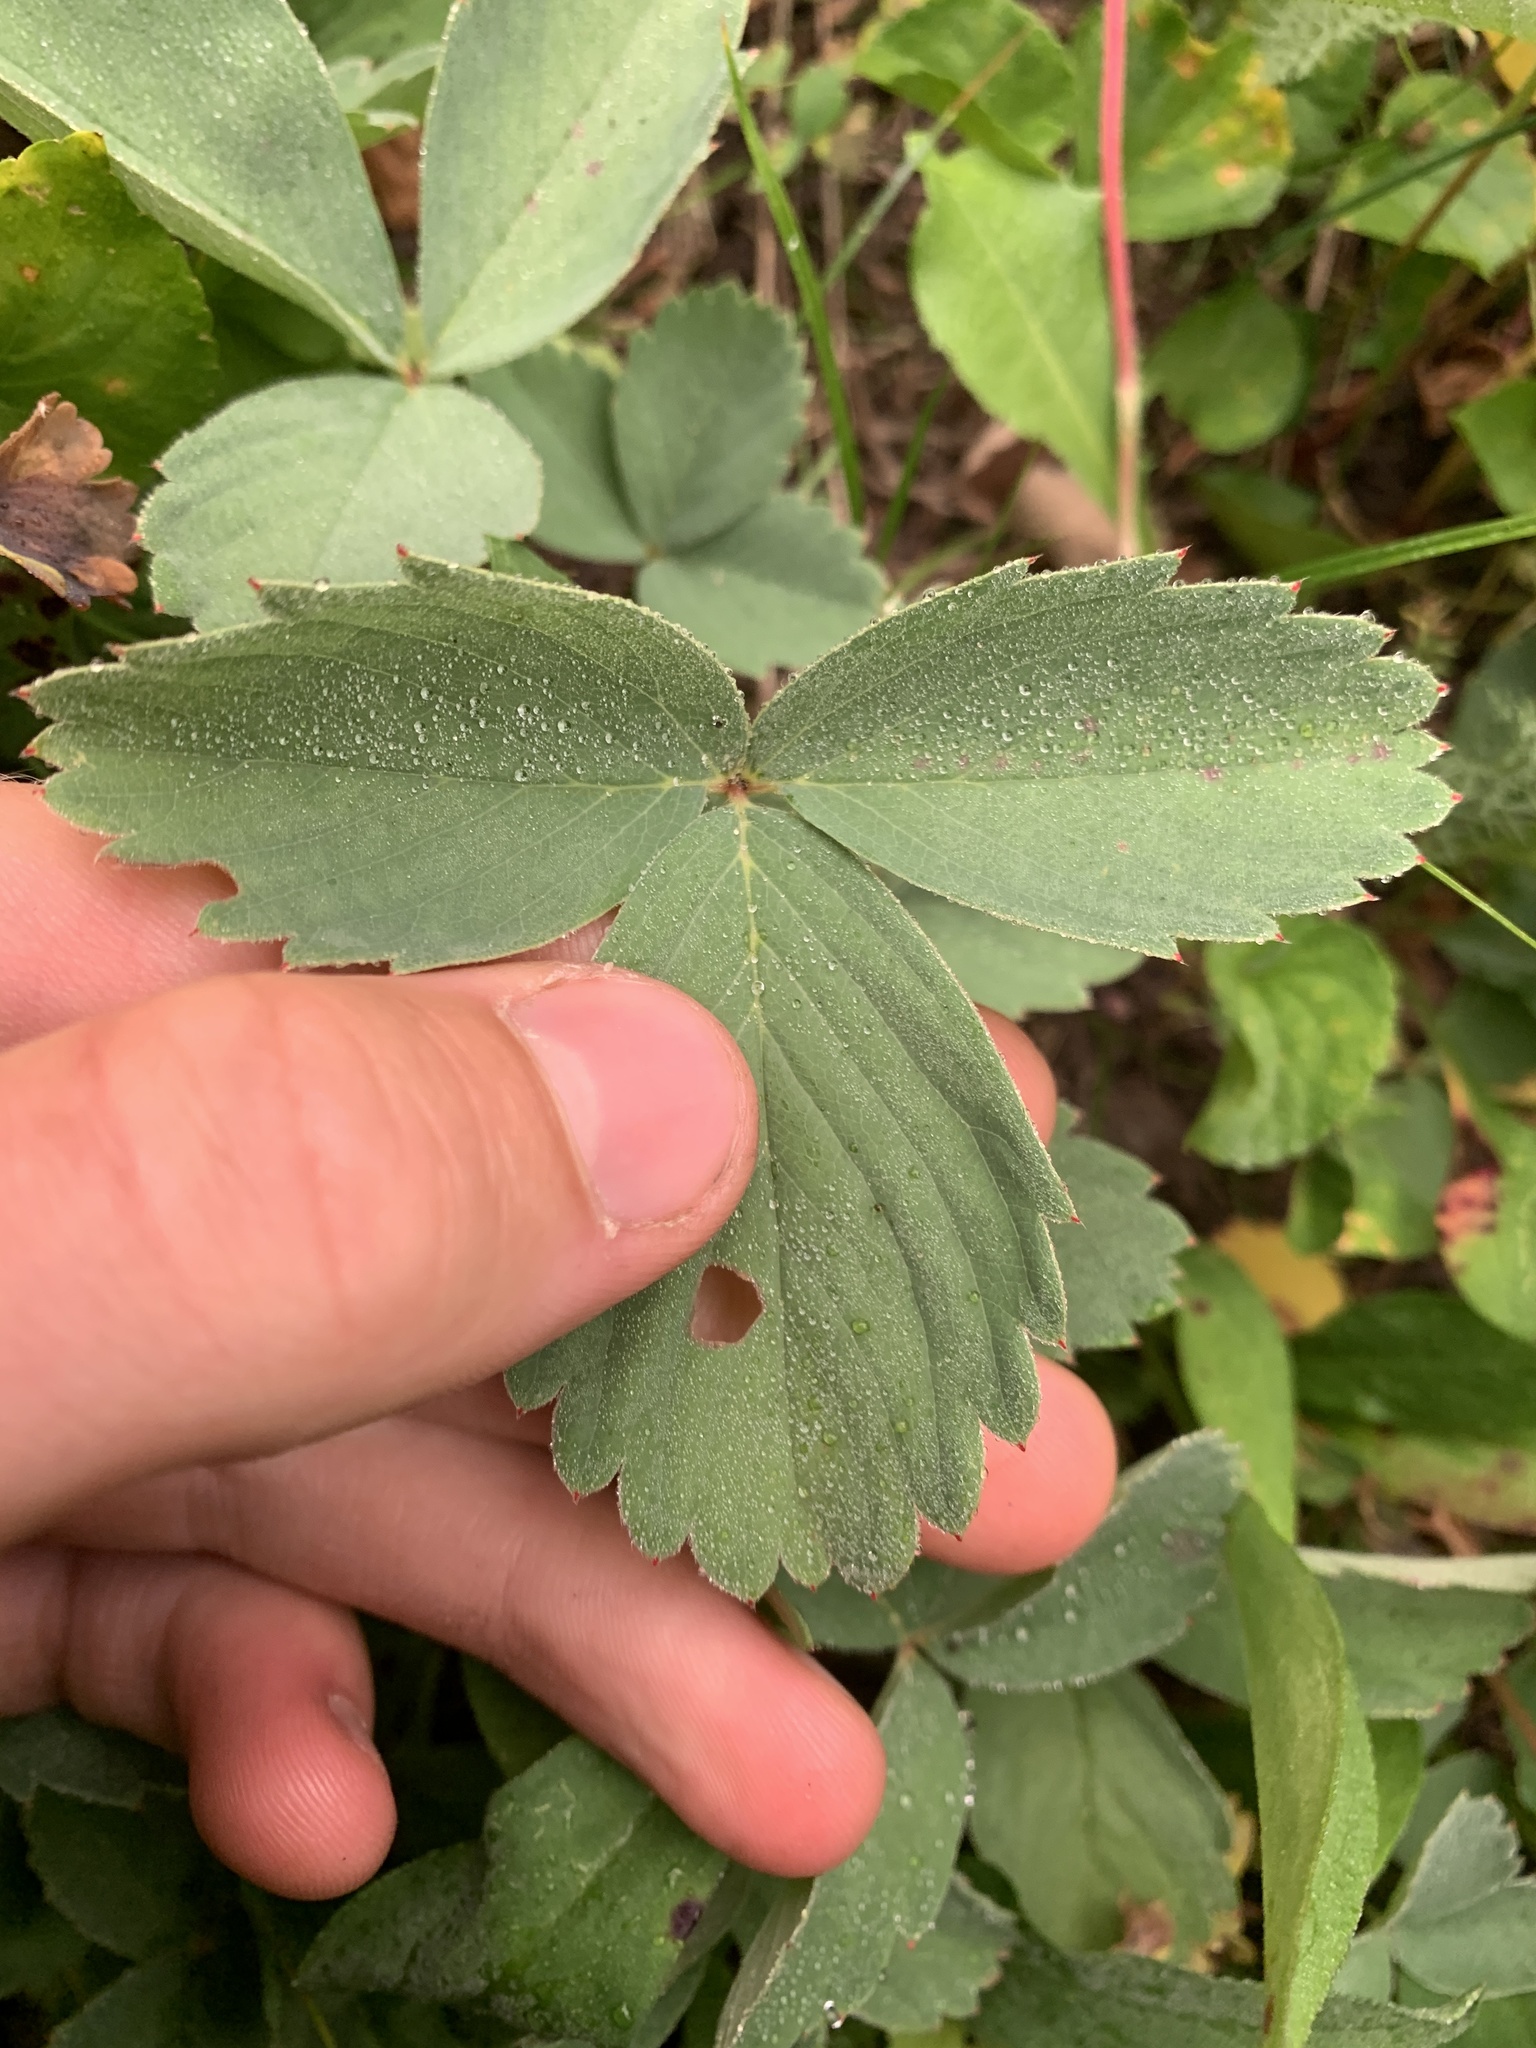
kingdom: Plantae
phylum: Tracheophyta
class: Magnoliopsida
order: Rosales
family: Rosaceae
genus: Fragaria
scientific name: Fragaria virginiana
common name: Thickleaved wild strawberry
